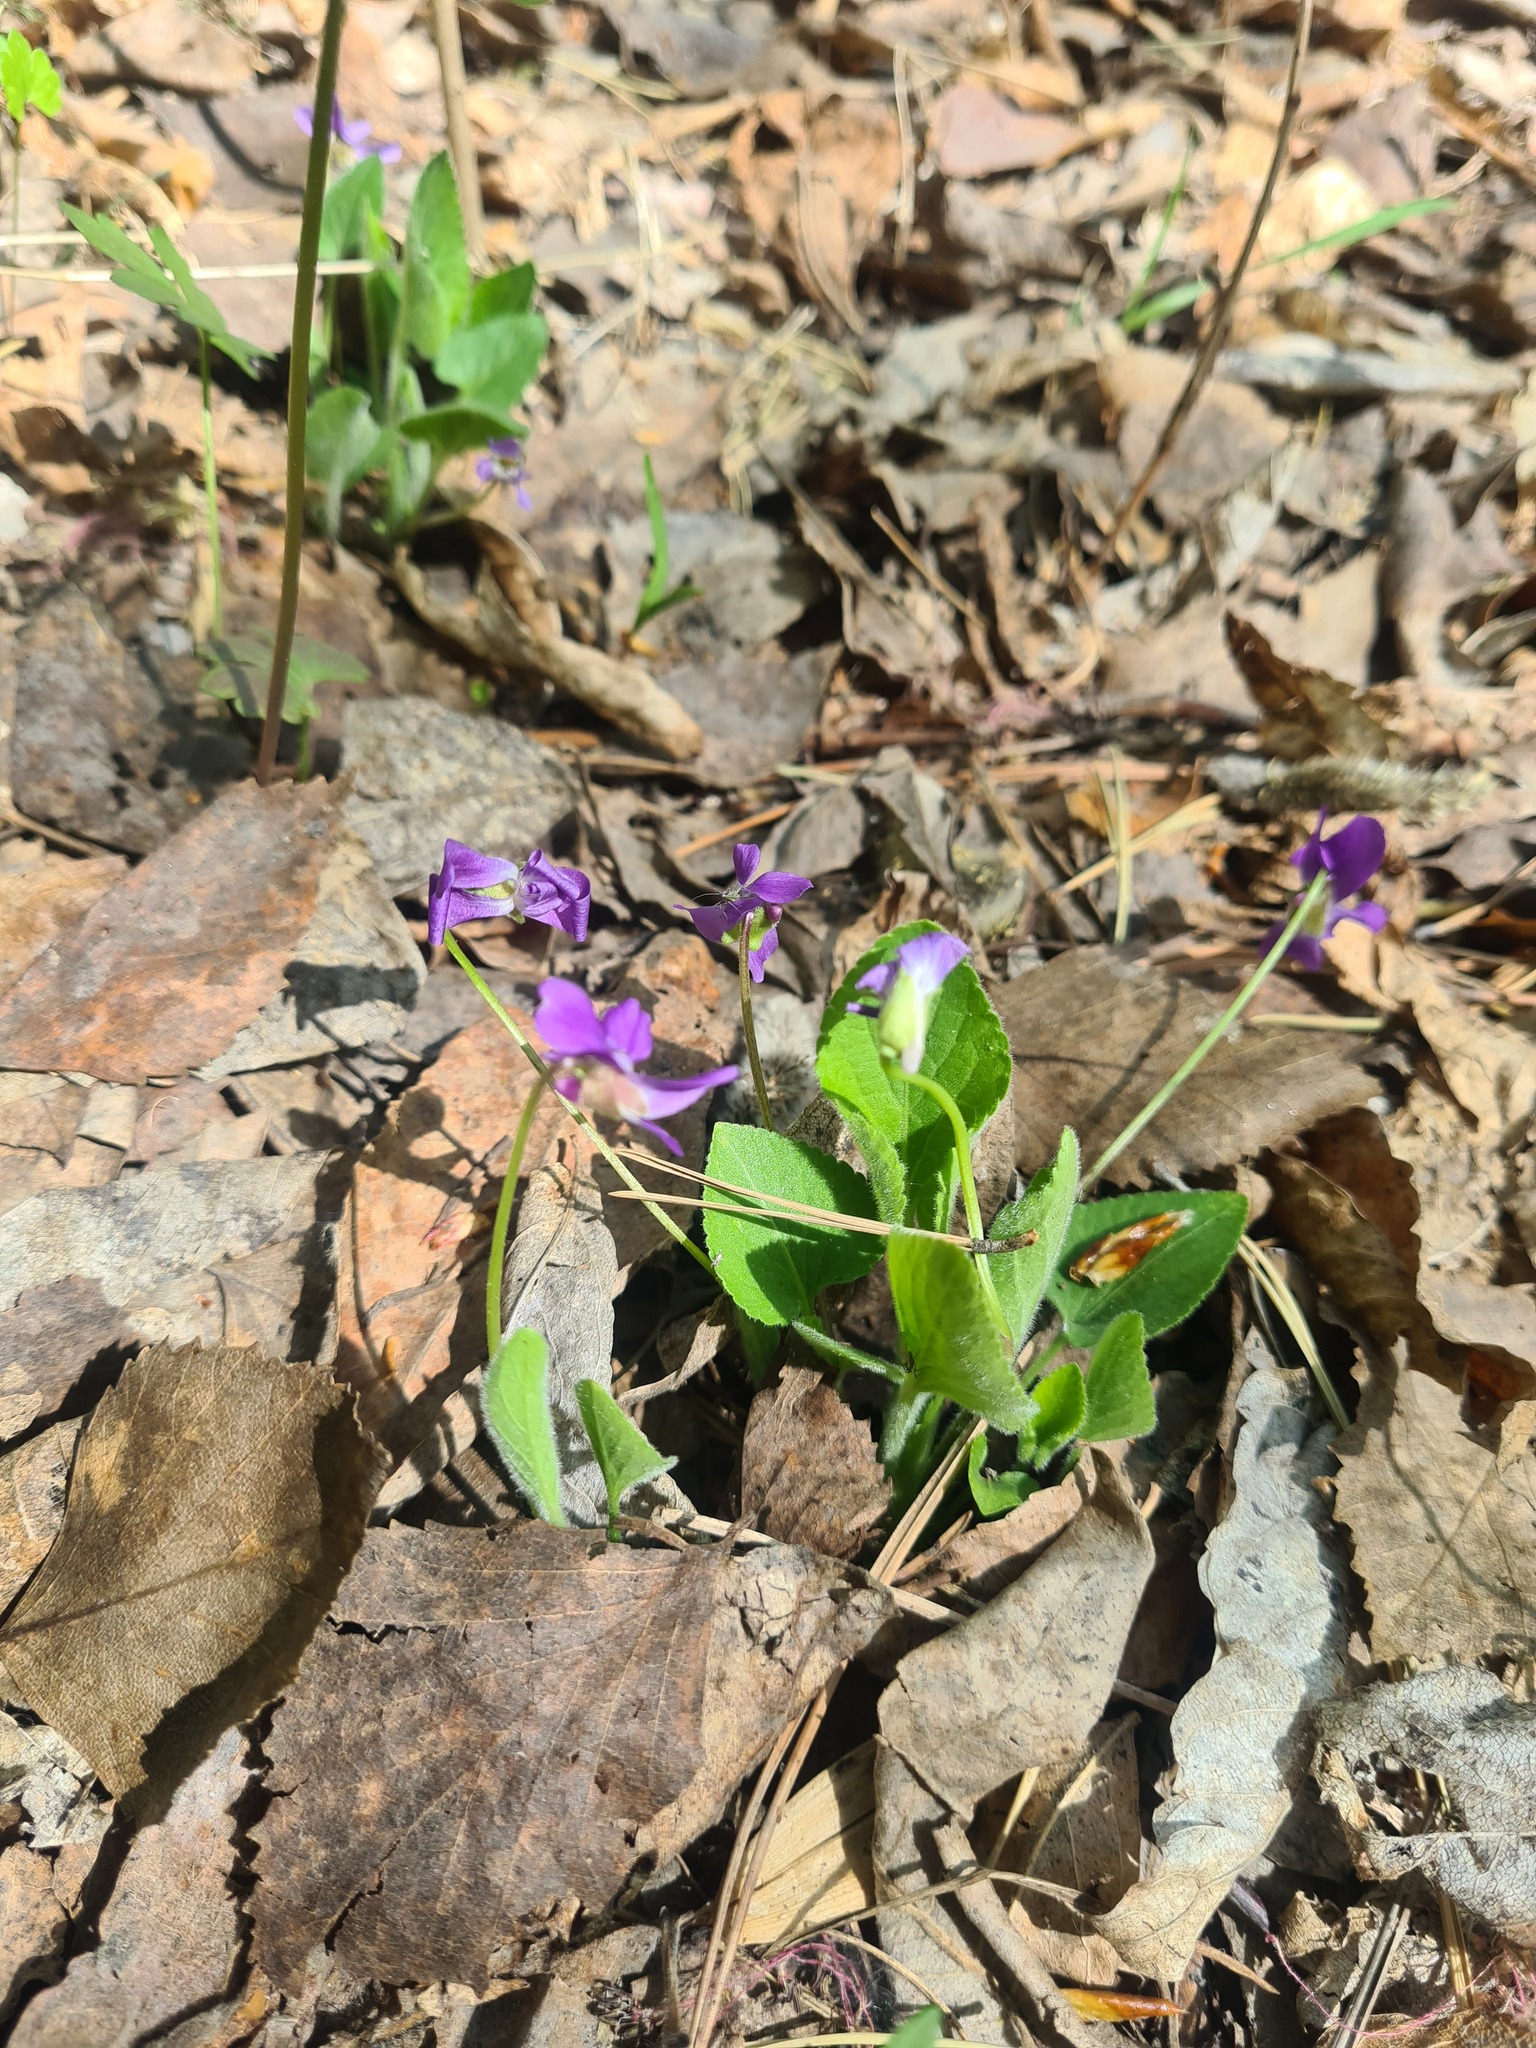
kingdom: Plantae
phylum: Tracheophyta
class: Magnoliopsida
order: Malpighiales
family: Violaceae
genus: Viola
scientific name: Viola hirta
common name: Hairy violet
